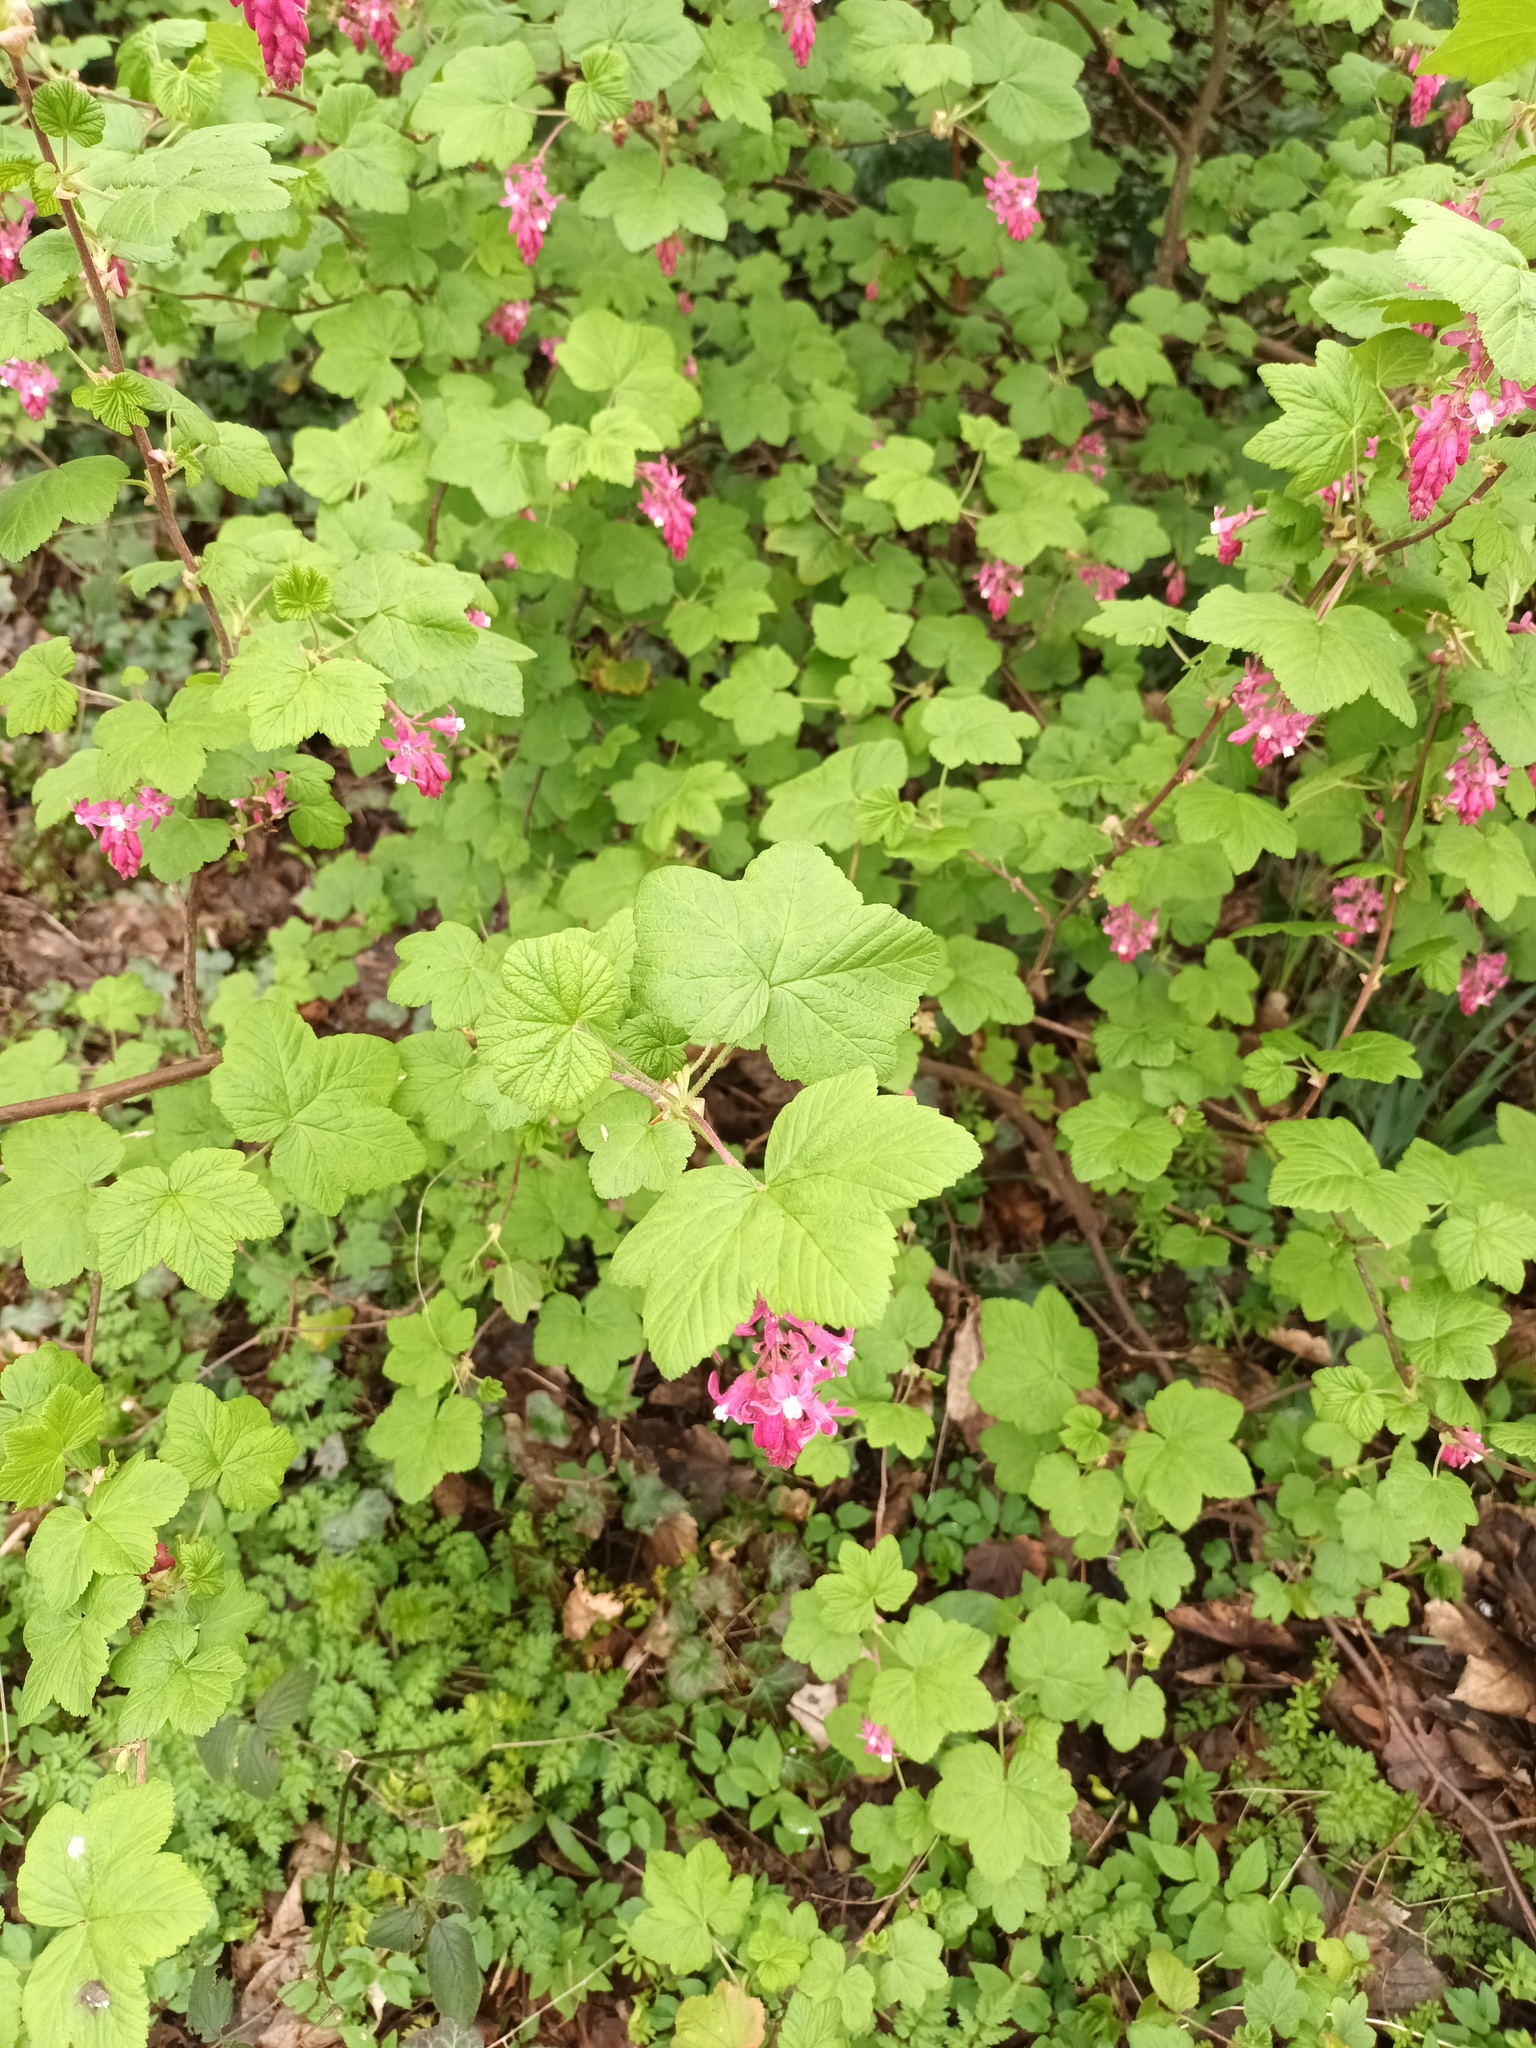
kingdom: Plantae
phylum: Tracheophyta
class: Magnoliopsida
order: Saxifragales
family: Grossulariaceae
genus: Ribes
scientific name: Ribes sanguineum
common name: Flowering currant
